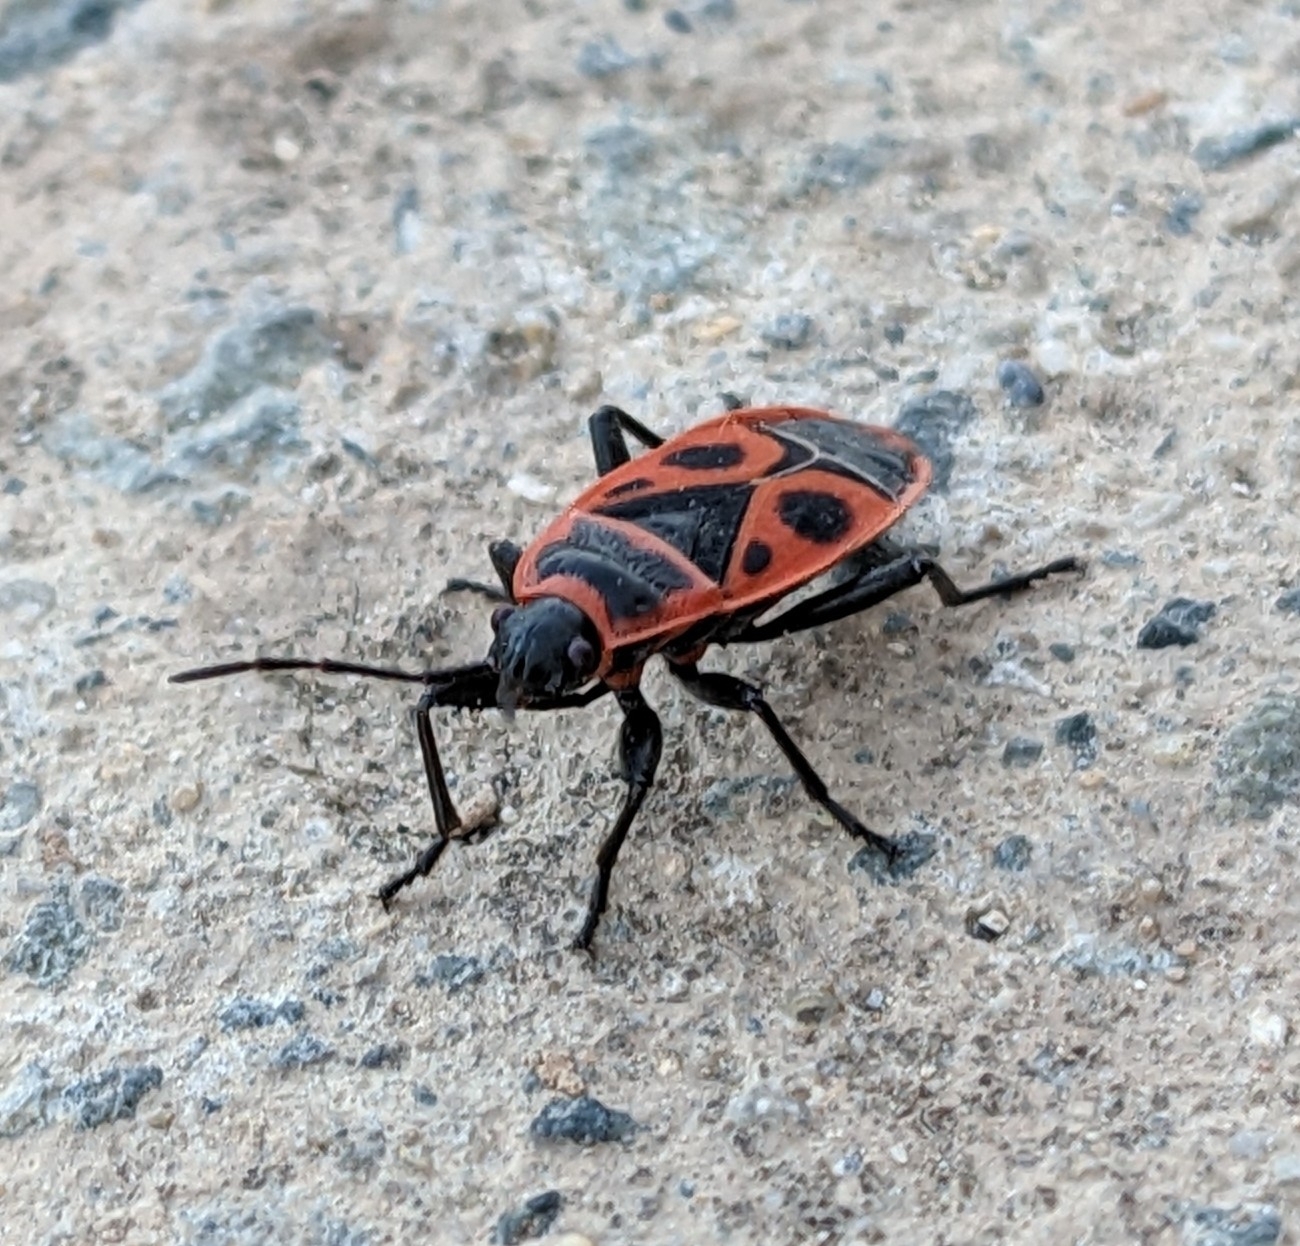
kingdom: Animalia
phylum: Arthropoda
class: Insecta
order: Hemiptera
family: Pyrrhocoridae
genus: Pyrrhocoris
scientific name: Pyrrhocoris apterus
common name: Firebug
